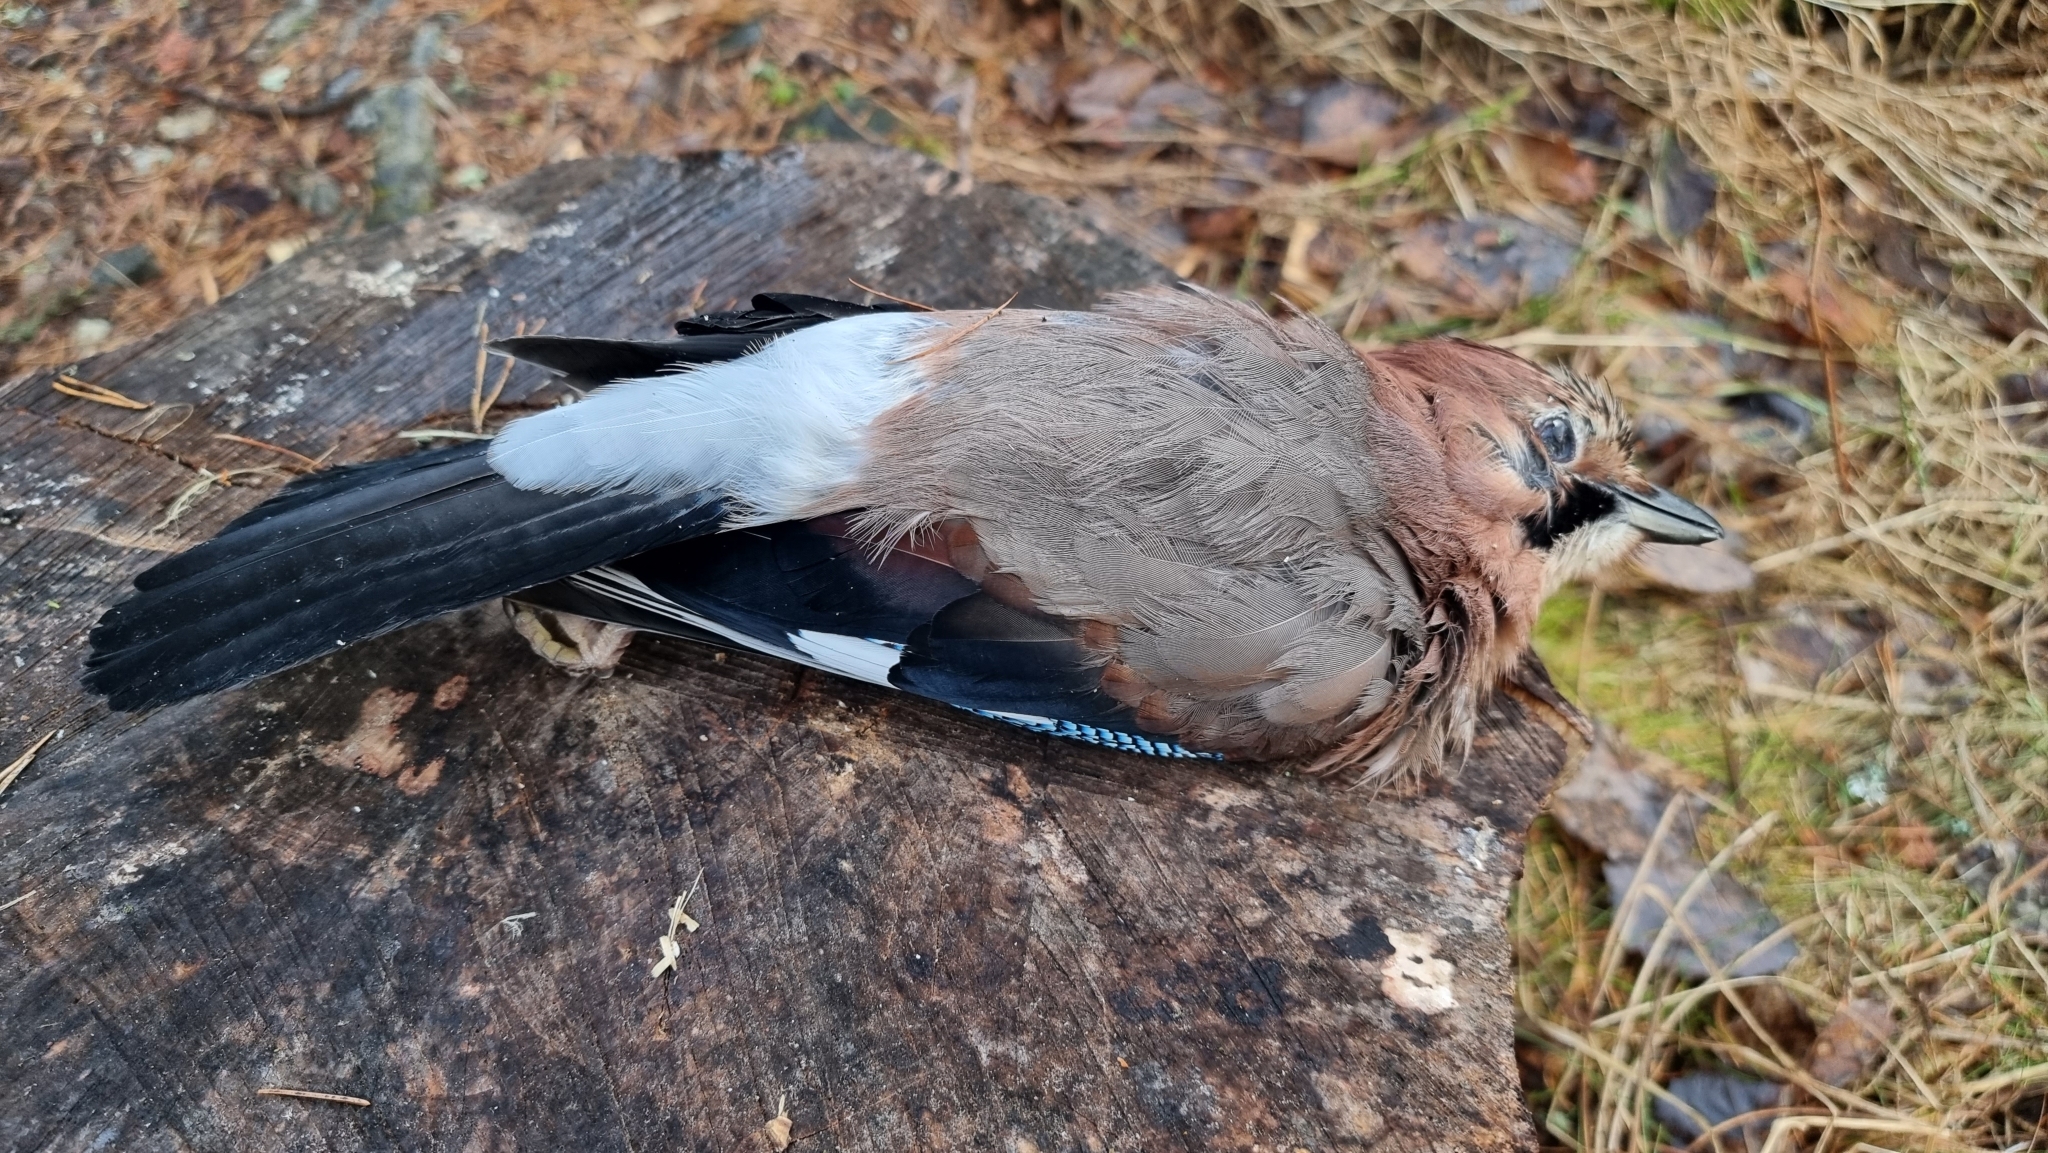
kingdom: Animalia
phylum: Chordata
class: Aves
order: Passeriformes
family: Corvidae
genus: Garrulus
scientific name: Garrulus glandarius
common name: Eurasian jay
